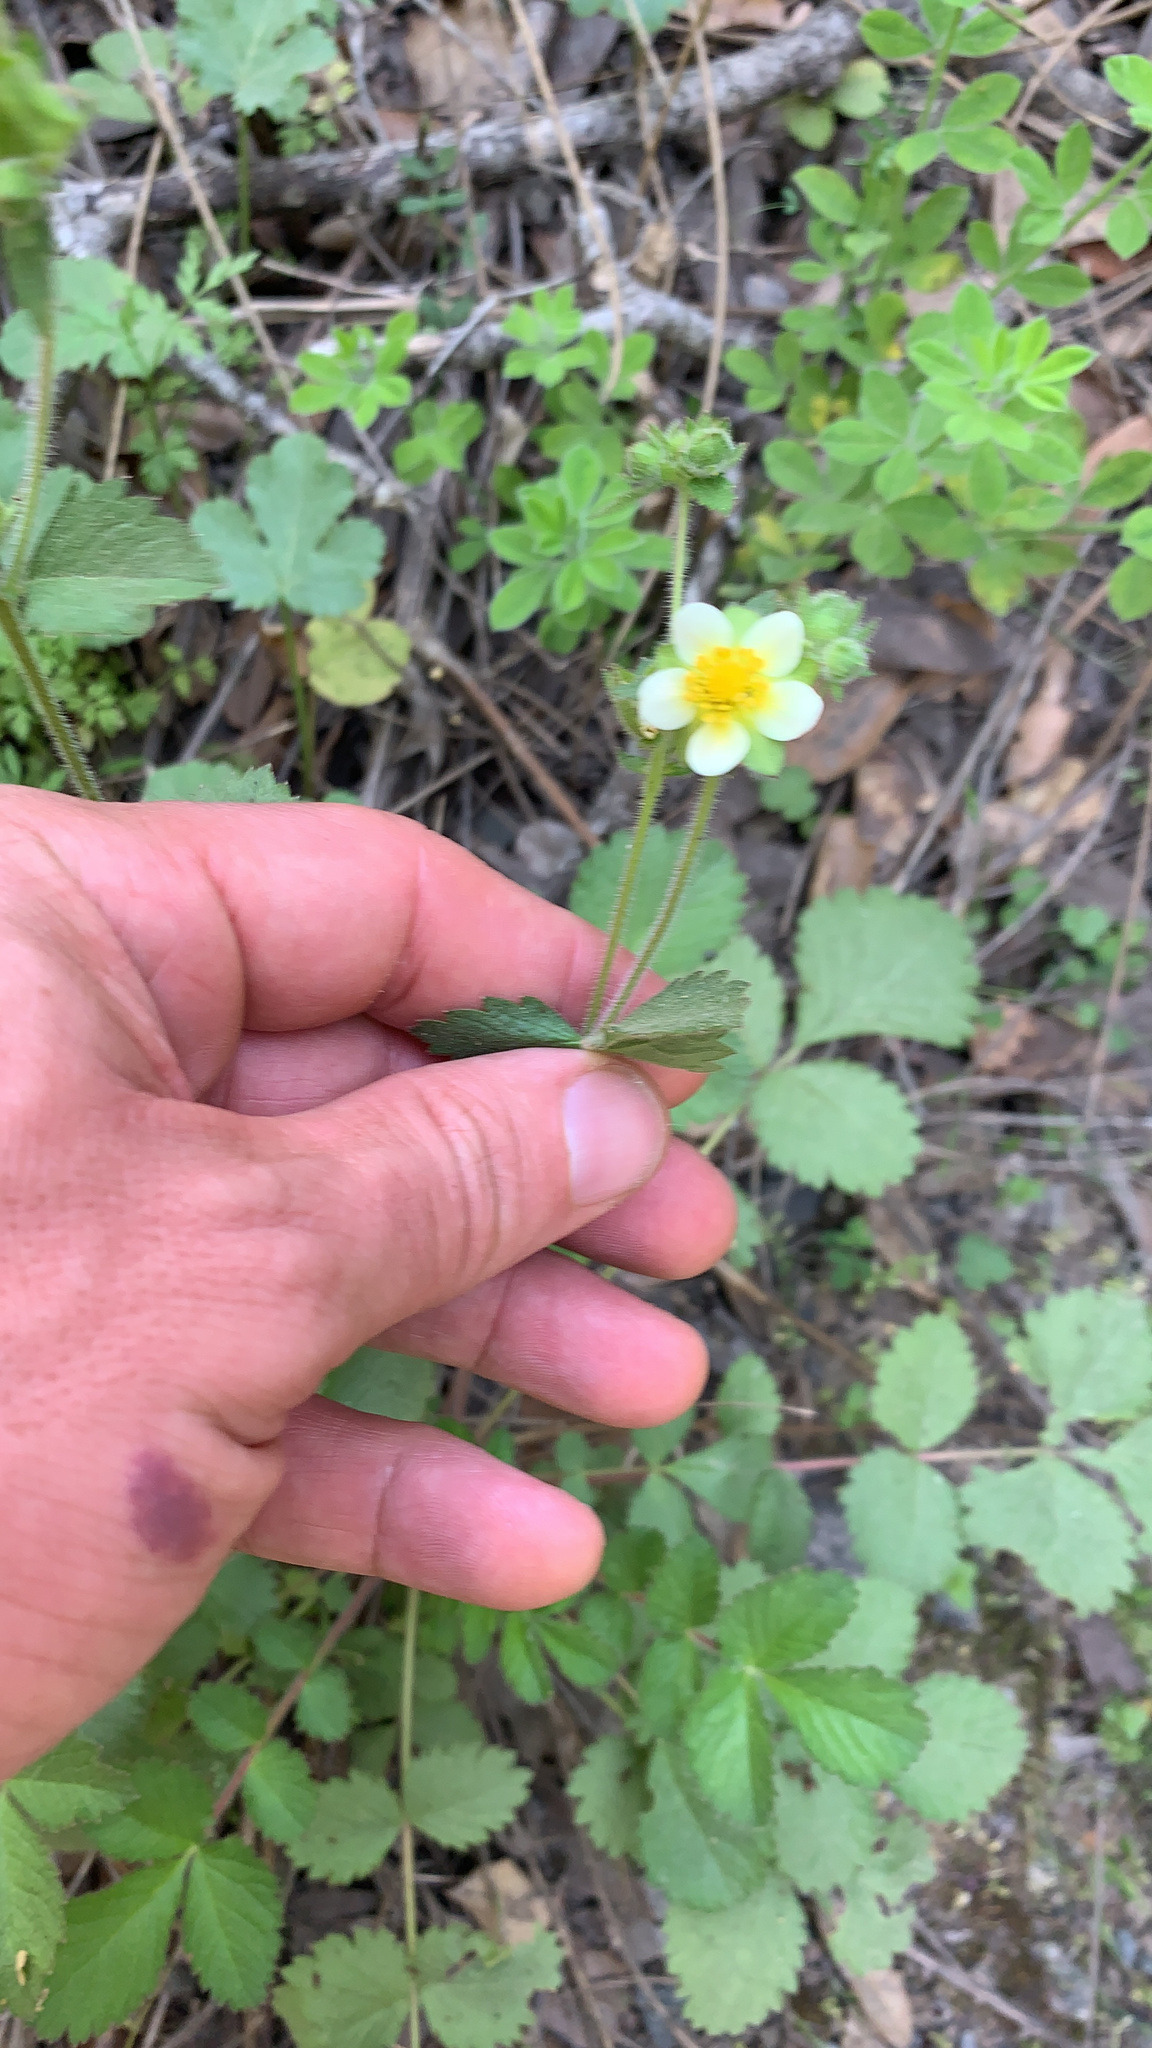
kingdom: Plantae
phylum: Tracheophyta
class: Magnoliopsida
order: Rosales
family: Rosaceae
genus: Drymocallis
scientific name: Drymocallis glandulosa
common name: Sticky cinquefoil
